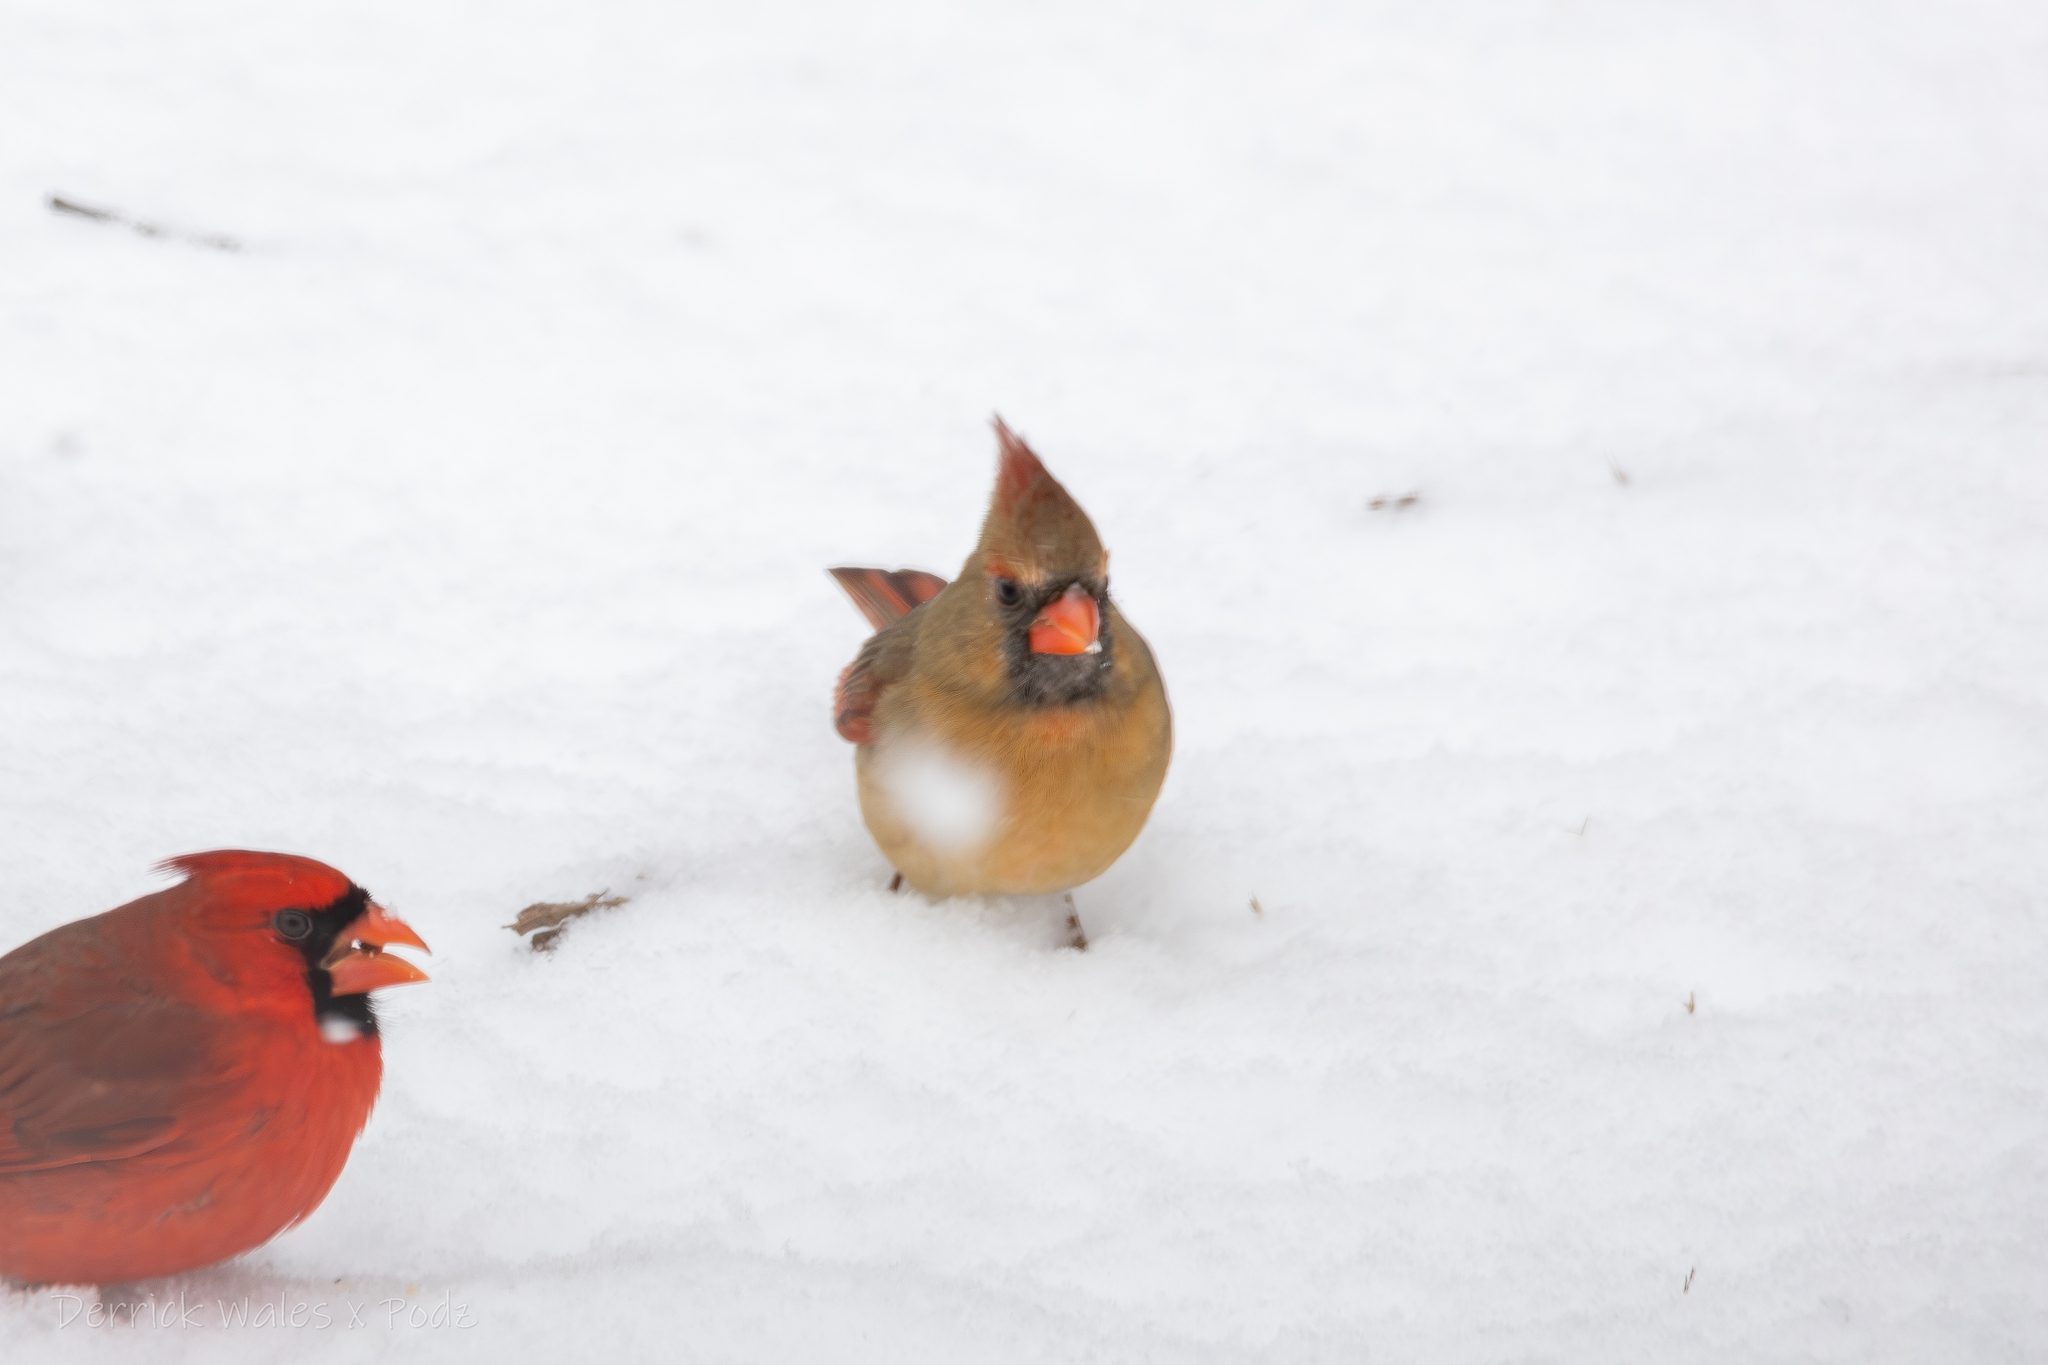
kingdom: Animalia
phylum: Chordata
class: Aves
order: Passeriformes
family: Cardinalidae
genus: Cardinalis
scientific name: Cardinalis cardinalis
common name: Northern cardinal
